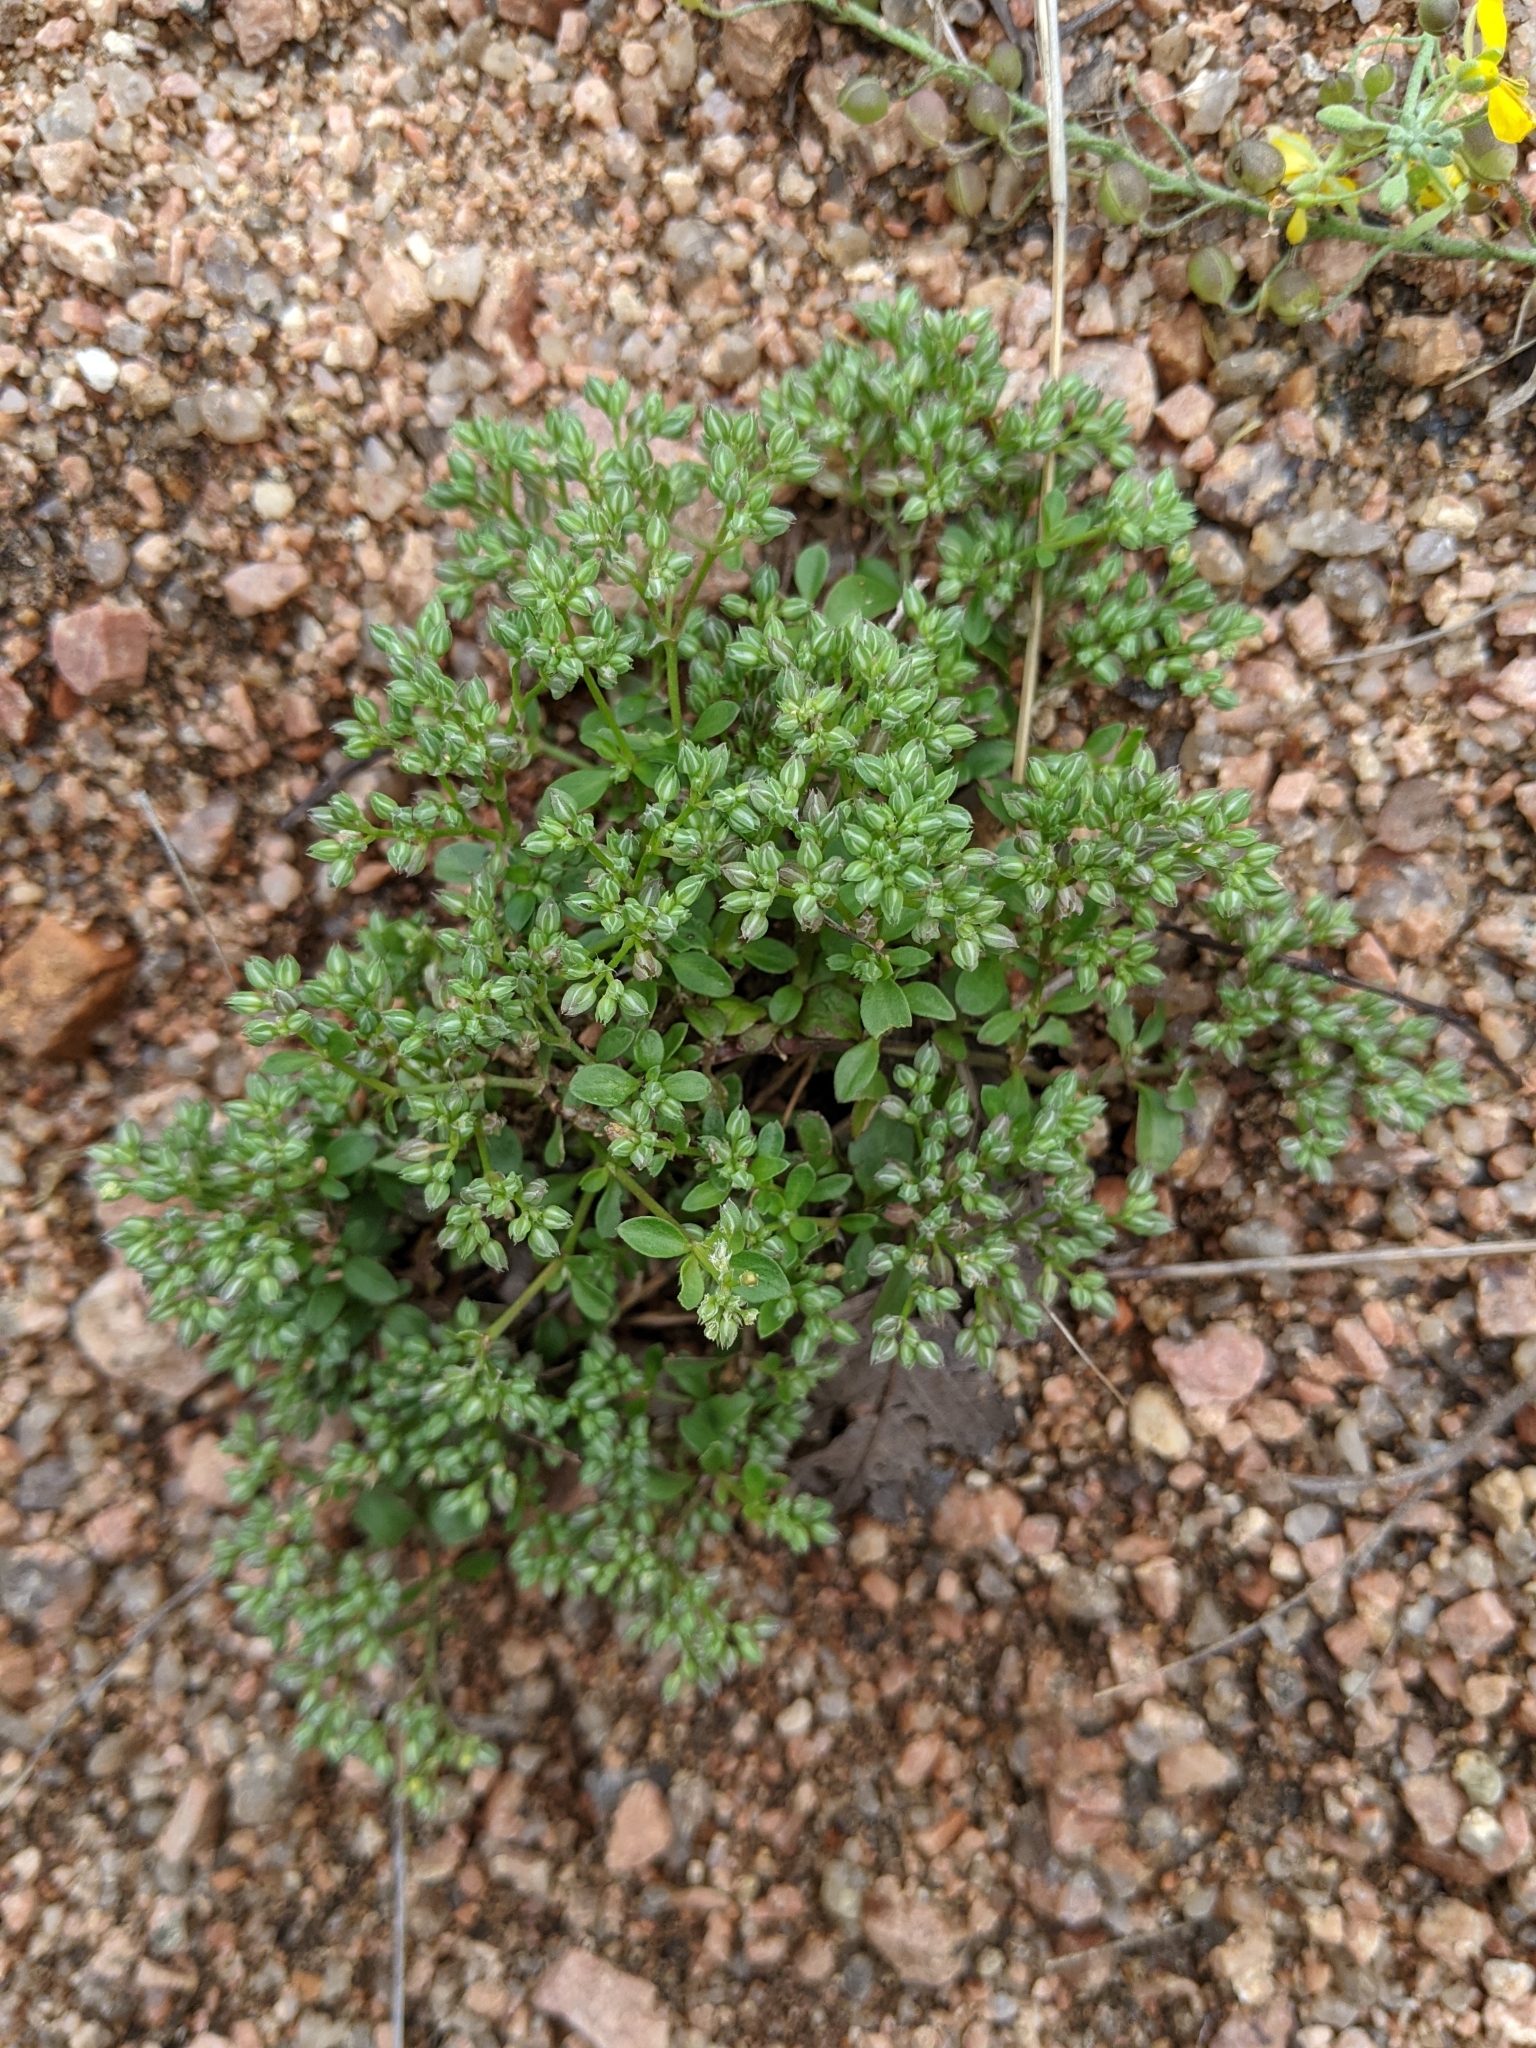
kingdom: Plantae
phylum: Tracheophyta
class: Magnoliopsida
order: Caryophyllales
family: Caryophyllaceae
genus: Polycarpon
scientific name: Polycarpon tetraphyllum
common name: Four-leaved all-seed
